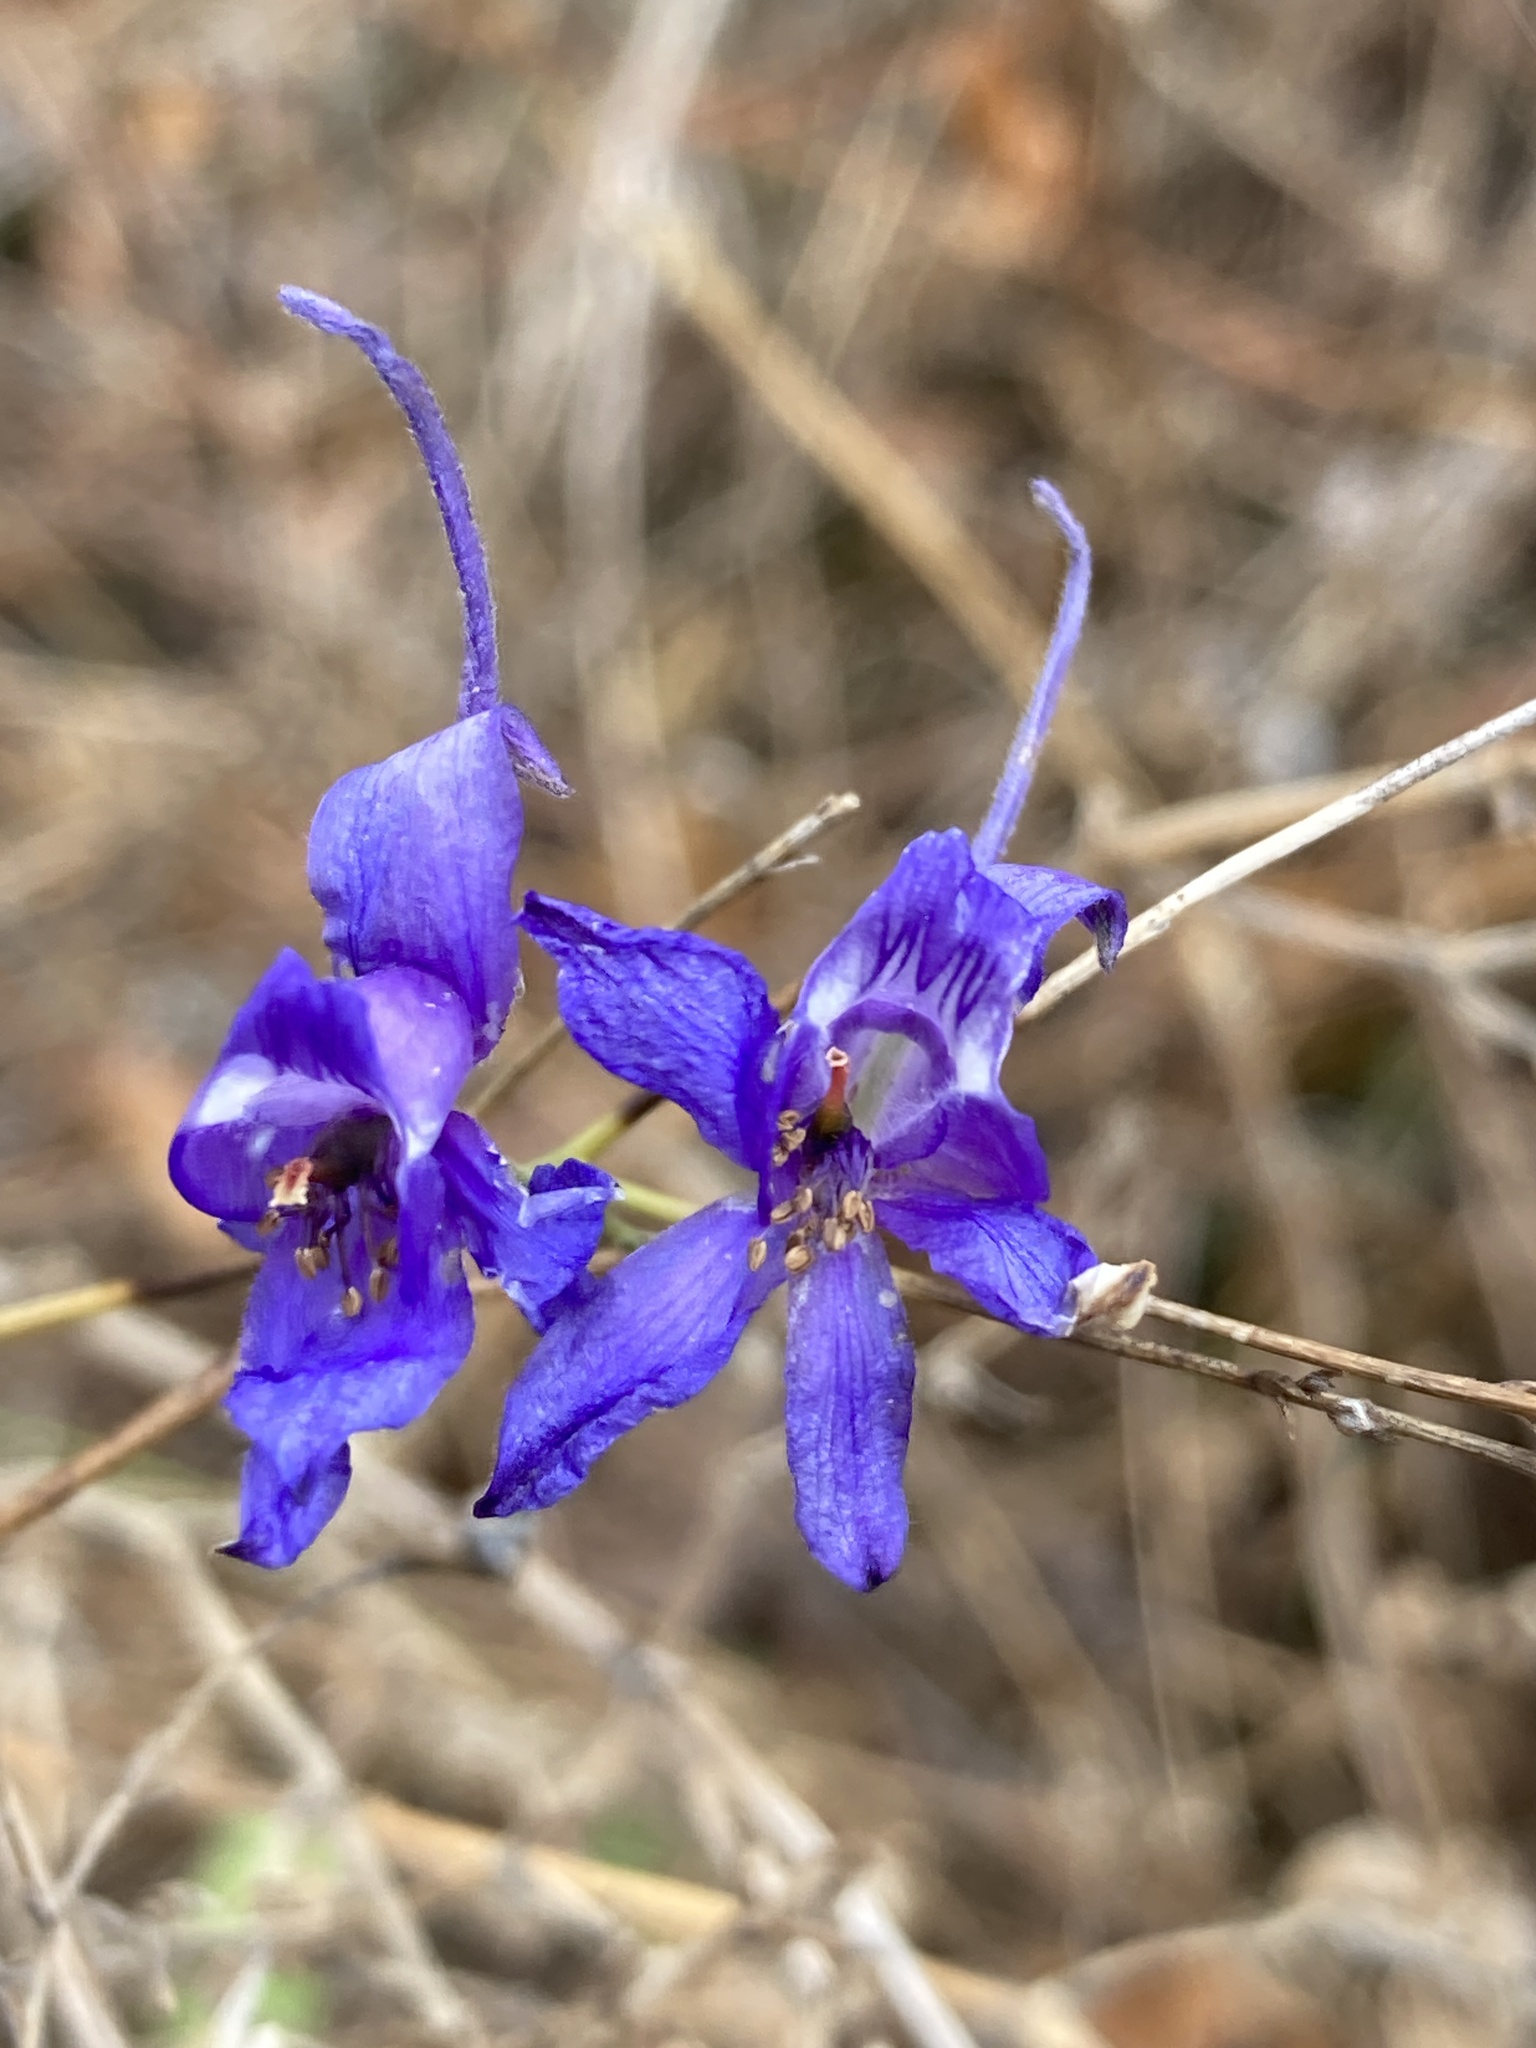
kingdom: Plantae
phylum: Tracheophyta
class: Magnoliopsida
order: Ranunculales
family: Ranunculaceae
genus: Delphinium
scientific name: Delphinium consolida
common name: Branching larkspur
